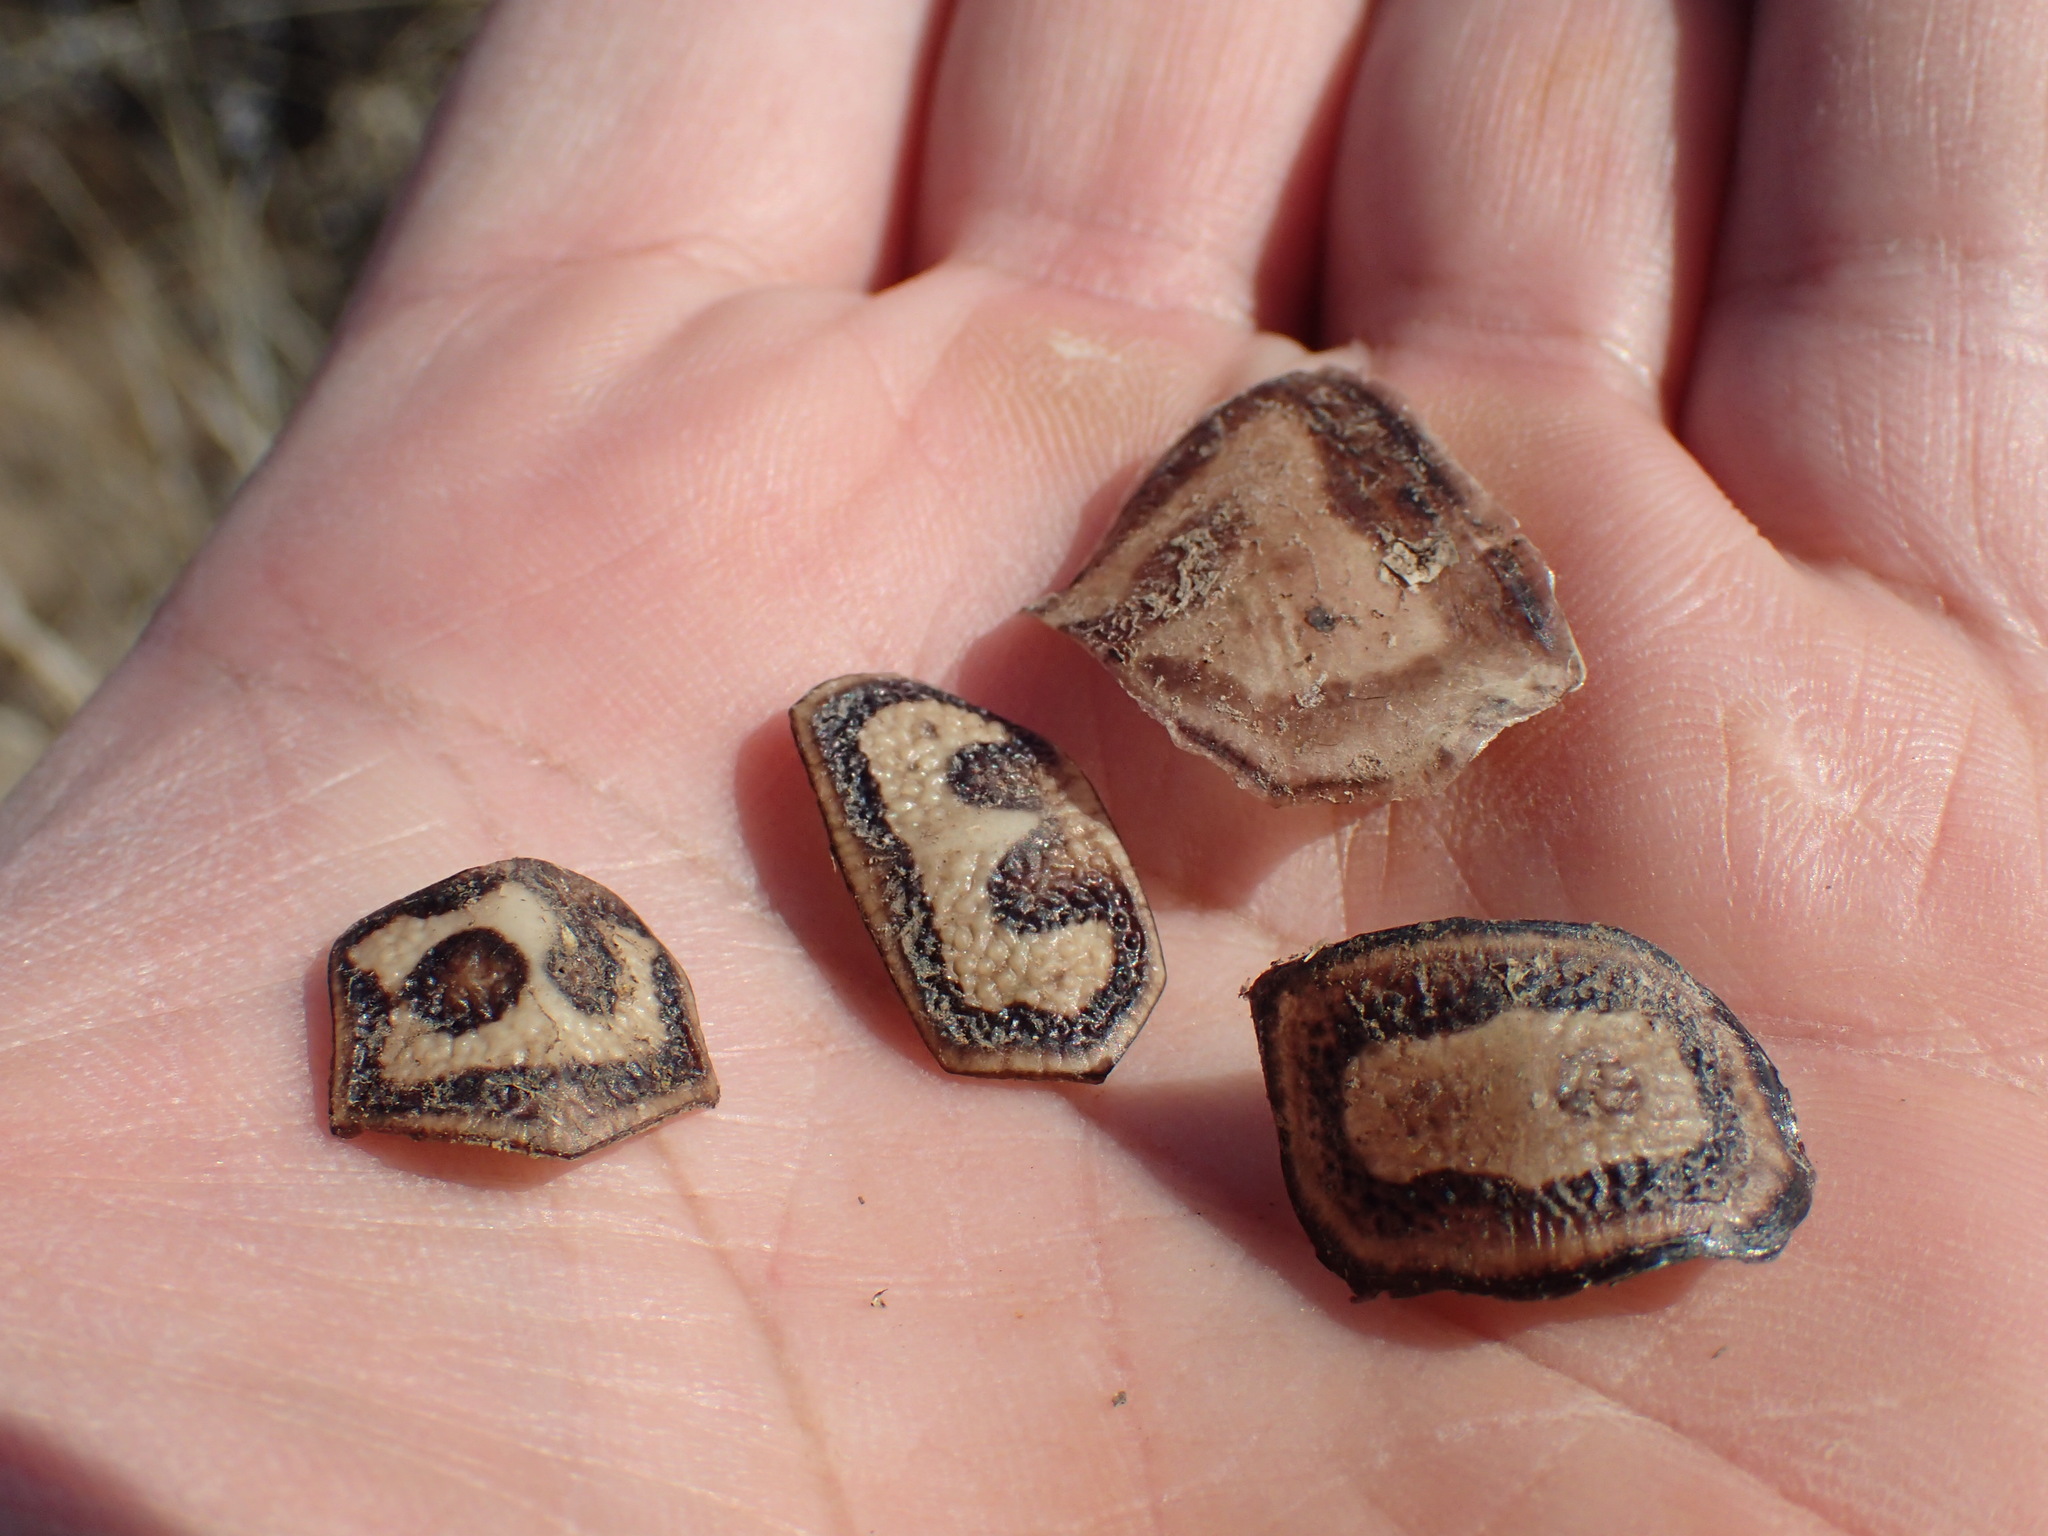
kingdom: Animalia
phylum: Chordata
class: Testudines
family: Testudinidae
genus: Stigmochelys
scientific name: Stigmochelys pardalis
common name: Leopard tortoise
